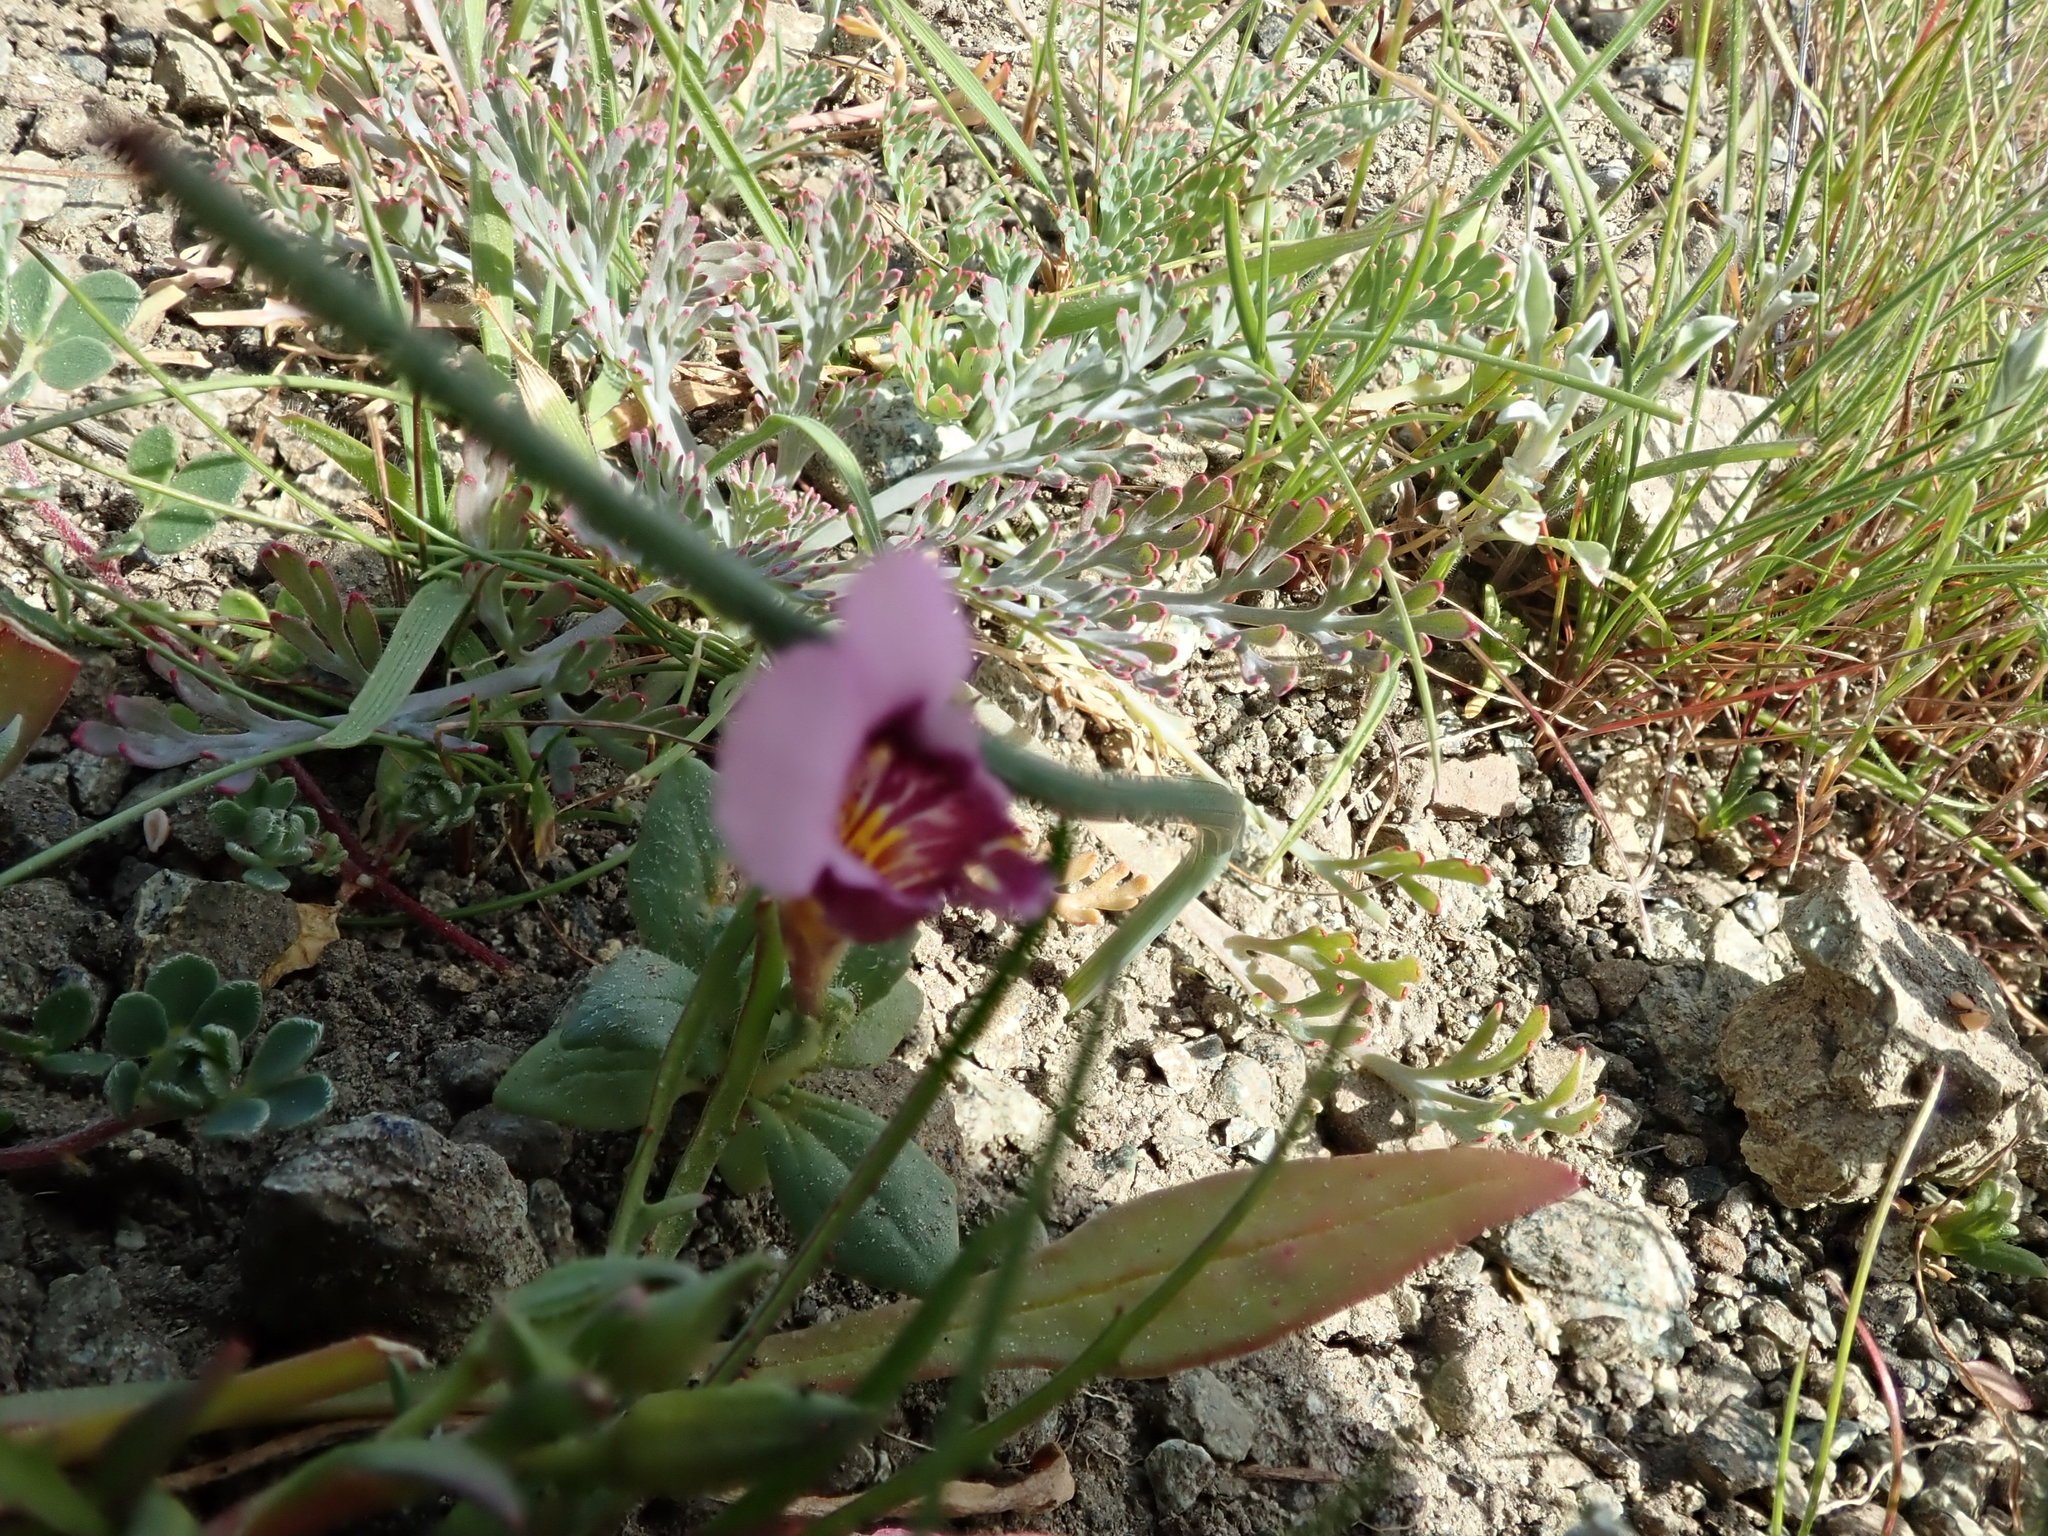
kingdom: Plantae
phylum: Tracheophyta
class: Magnoliopsida
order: Lamiales
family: Phrymaceae
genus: Diplacus
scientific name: Diplacus douglasii
